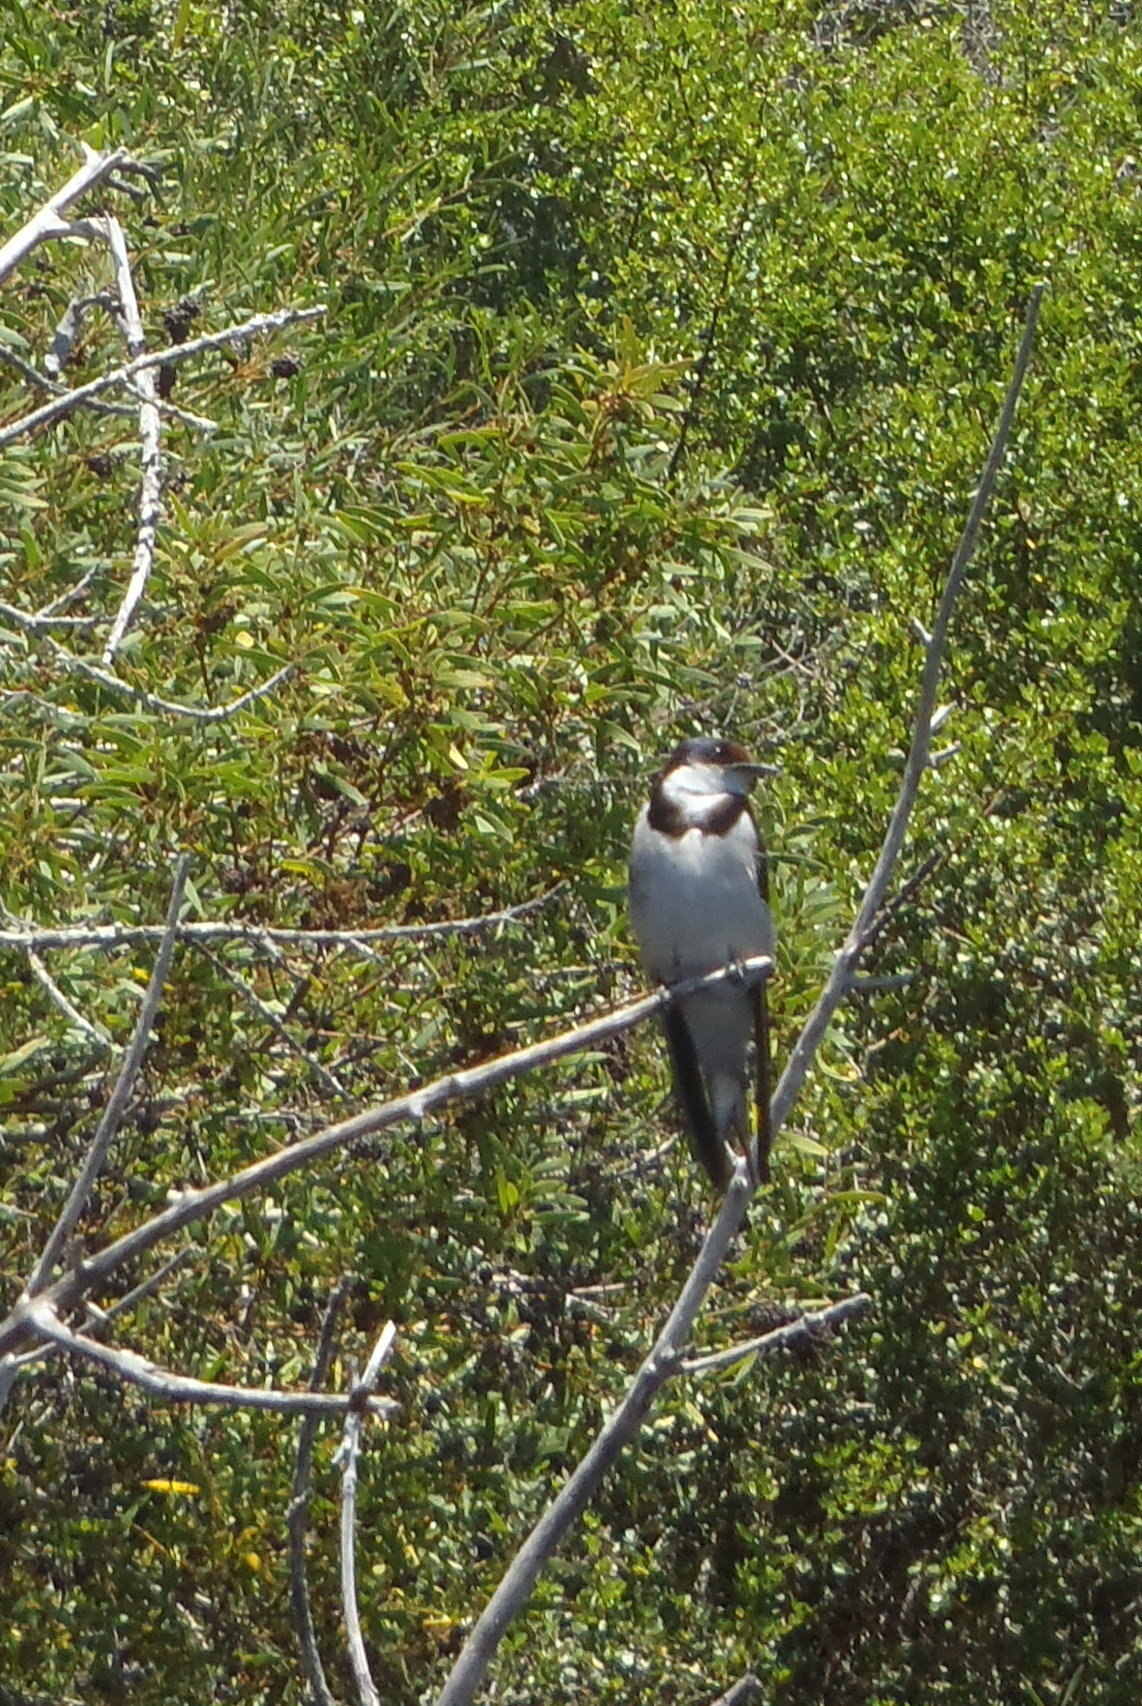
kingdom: Animalia
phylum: Chordata
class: Aves
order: Passeriformes
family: Hirundinidae
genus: Hirundo
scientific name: Hirundo albigularis
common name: White-throated swallow
